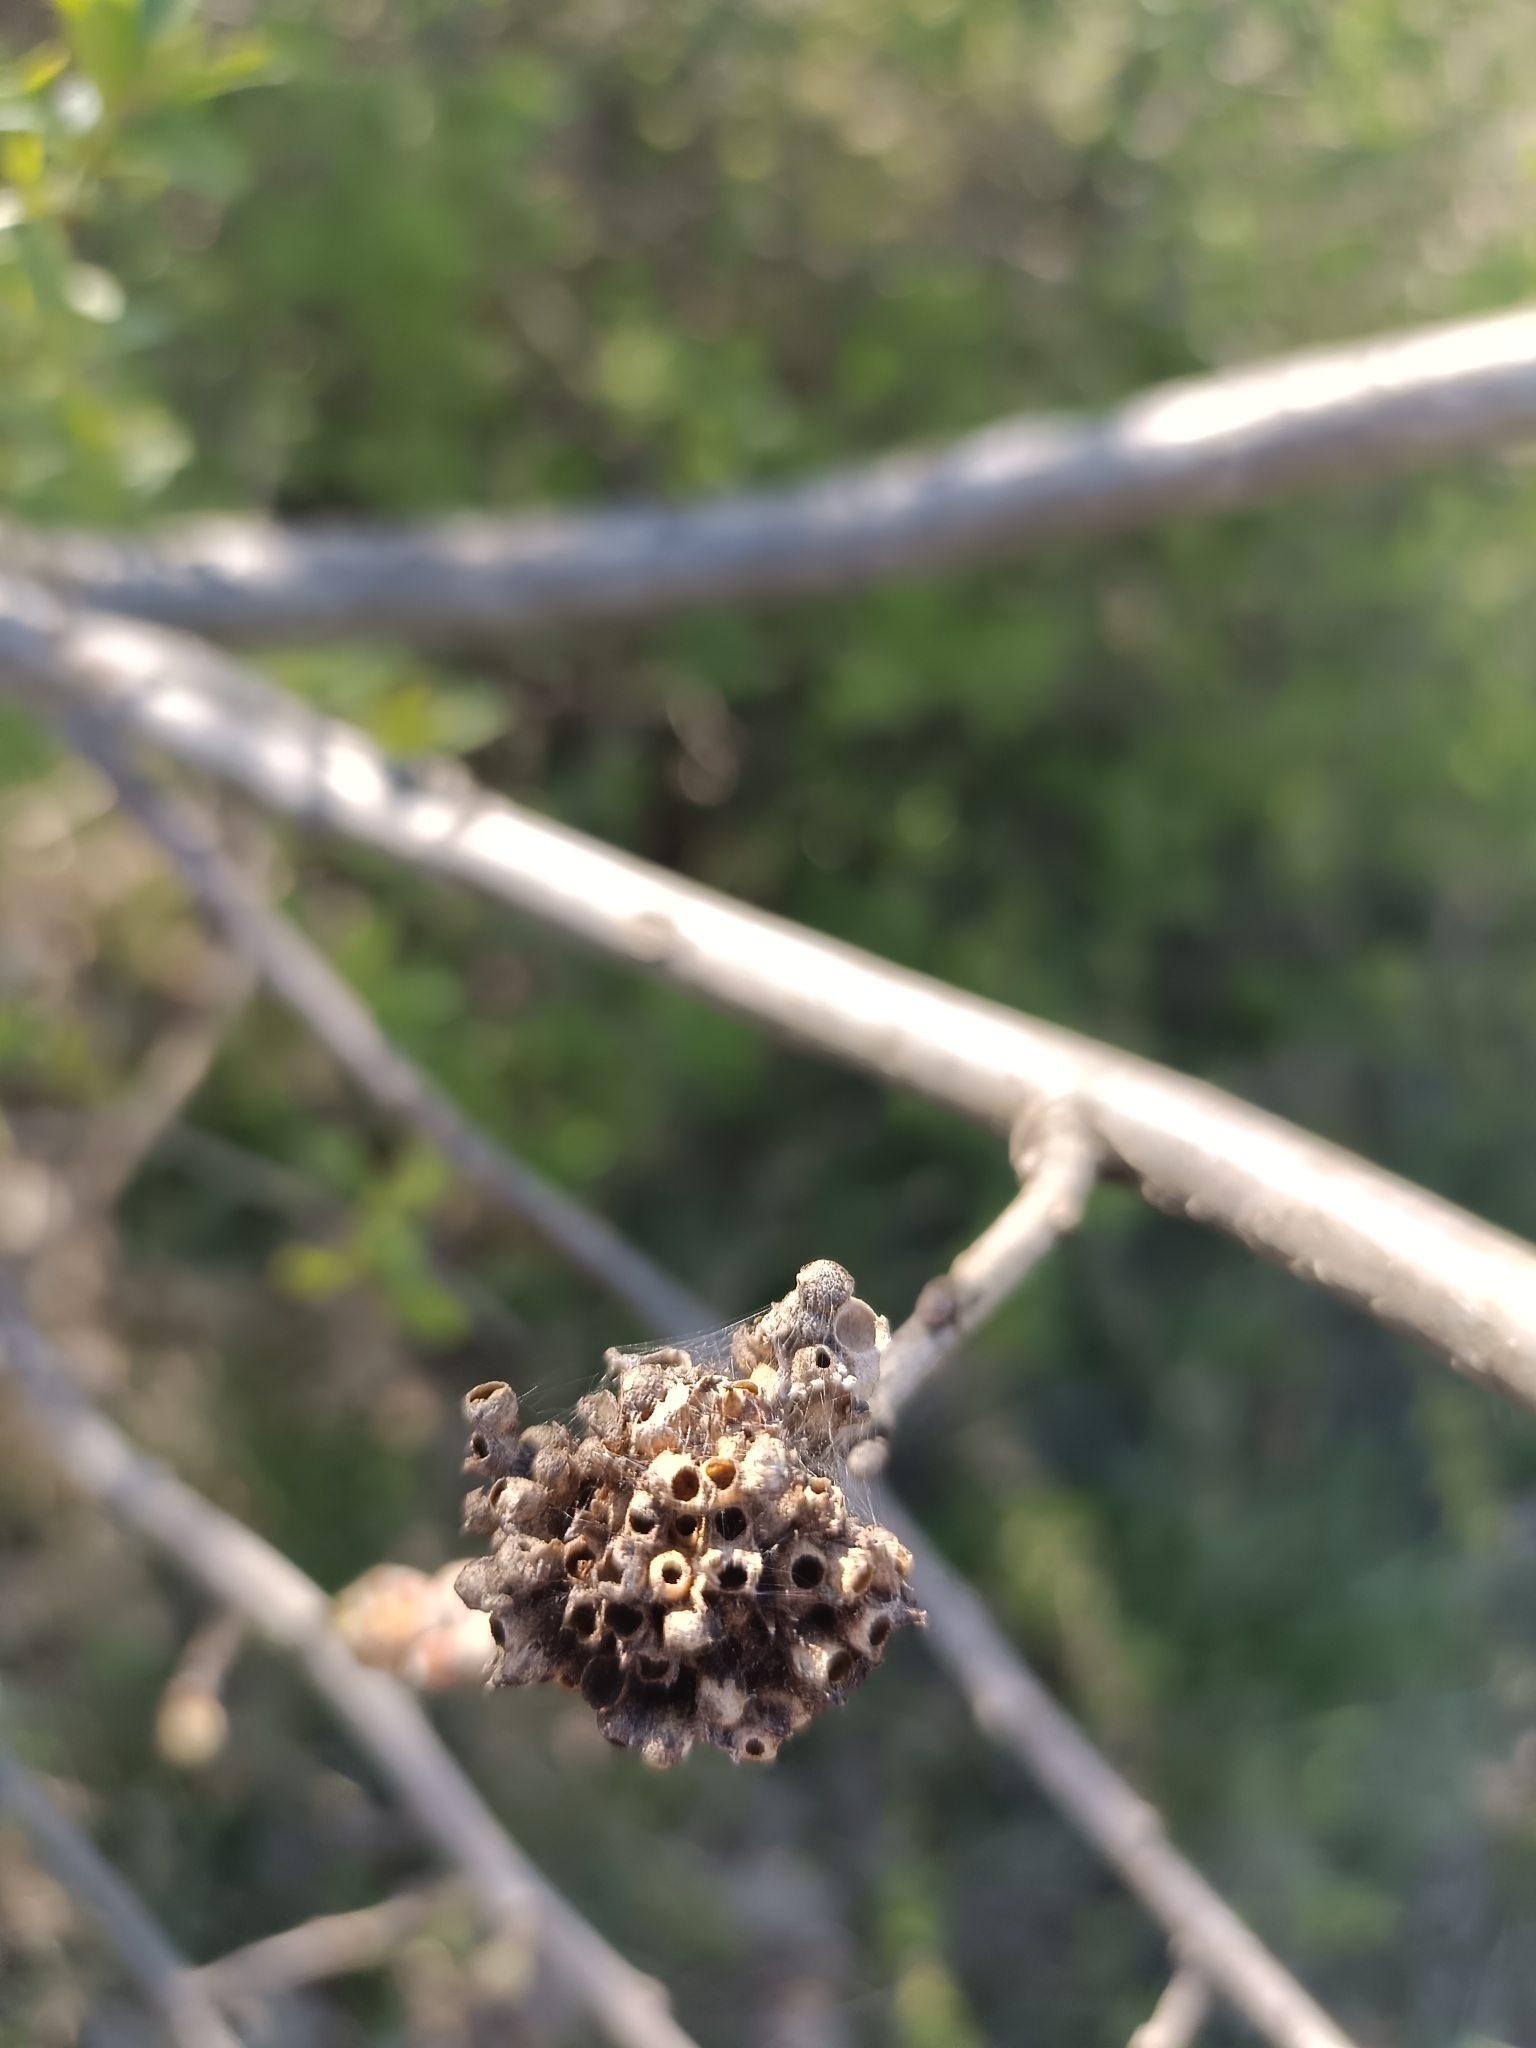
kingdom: Animalia
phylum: Arthropoda
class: Insecta
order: Hymenoptera
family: Cynipidae
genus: Biorhiza
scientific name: Biorhiza pallida
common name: Oak apple
